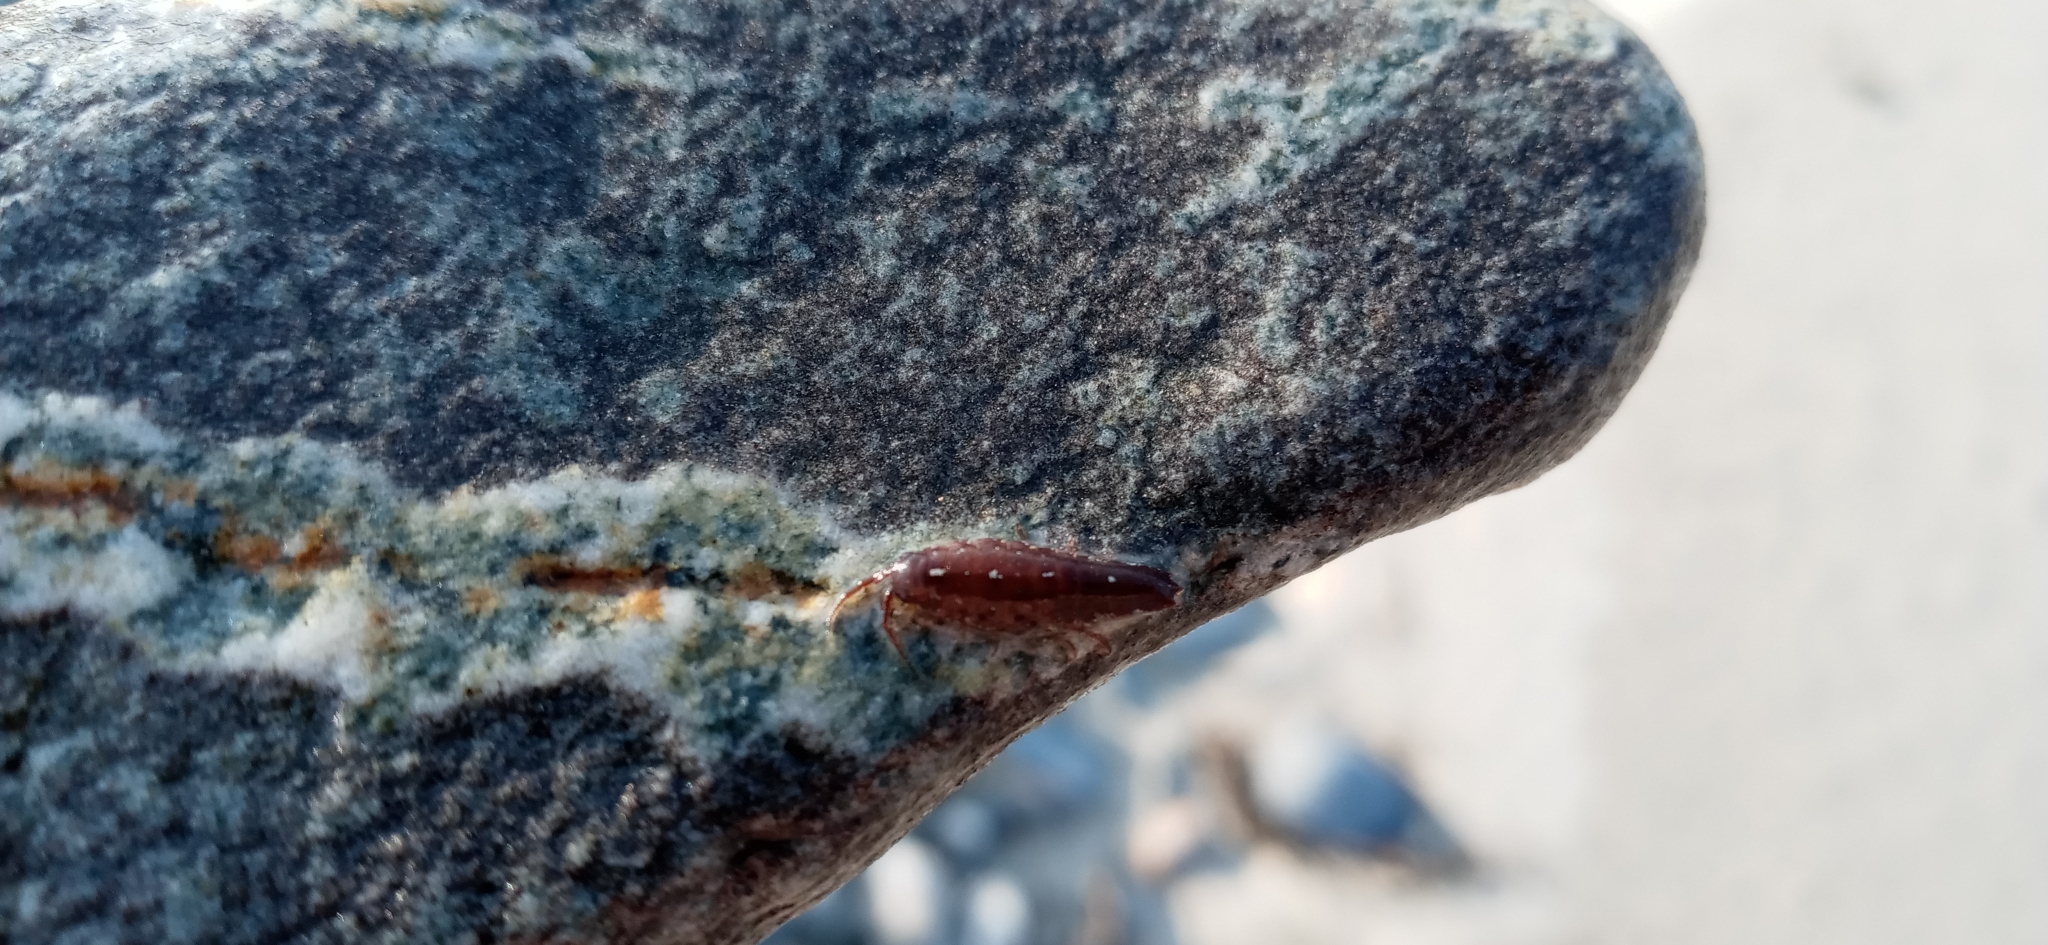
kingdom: Animalia
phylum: Arthropoda
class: Malacostraca
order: Isopoda
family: Idoteidae
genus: Idotea
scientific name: Idotea balthica
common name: Baltic isopod
